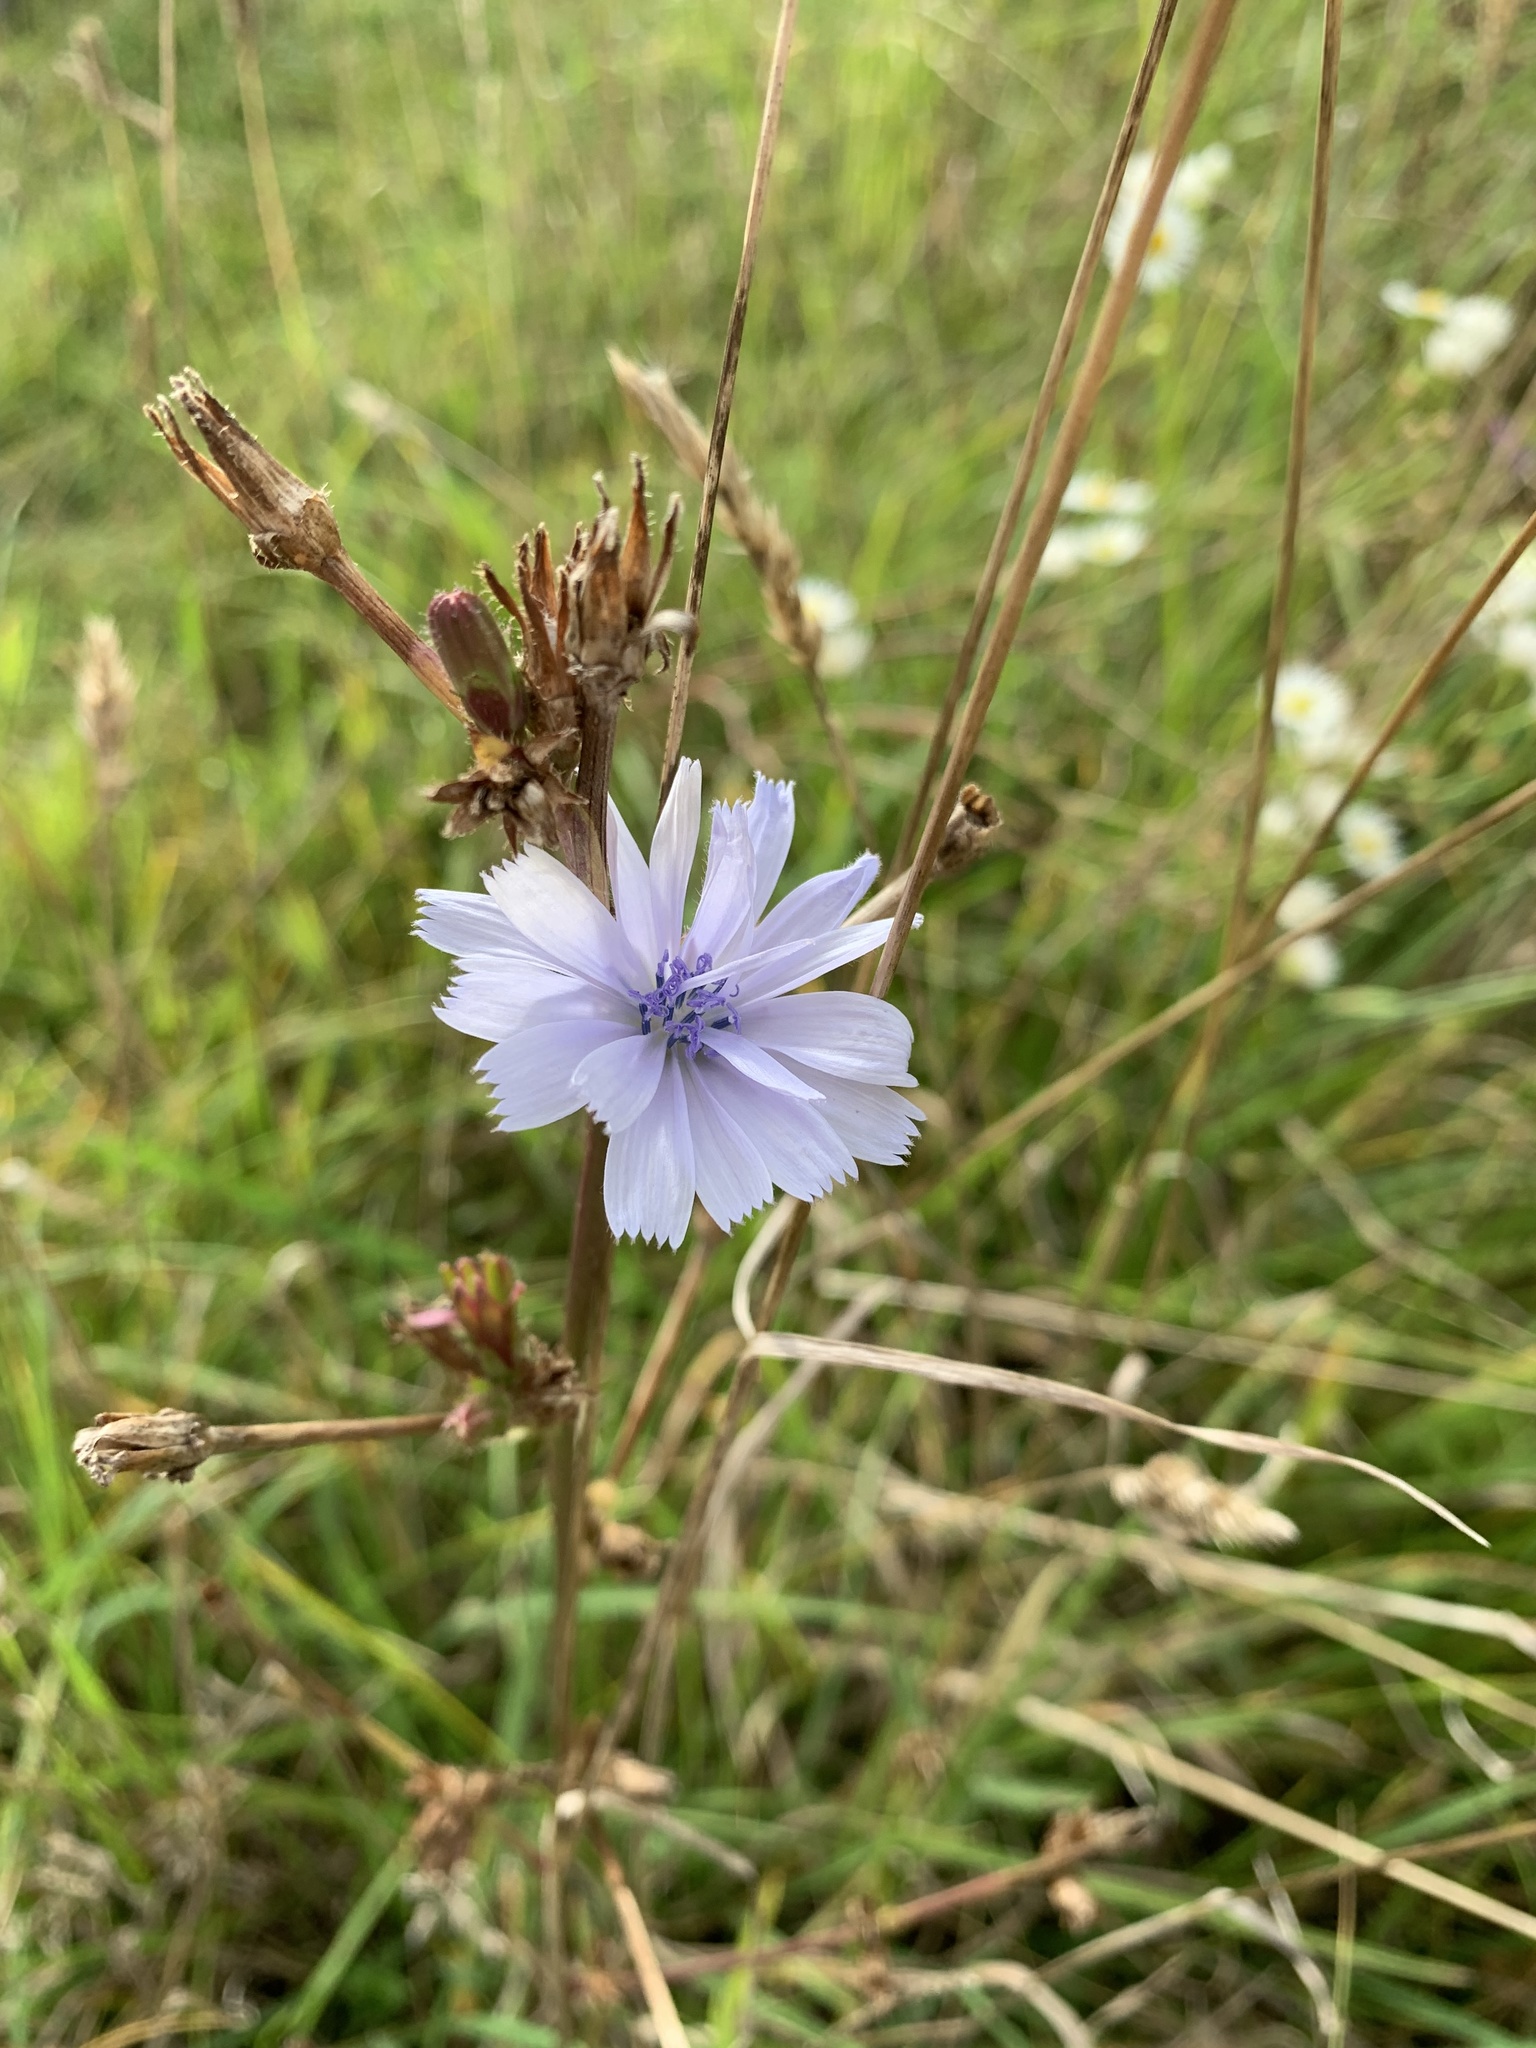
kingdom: Plantae
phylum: Tracheophyta
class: Magnoliopsida
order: Asterales
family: Asteraceae
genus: Cichorium
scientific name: Cichorium intybus
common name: Chicory
